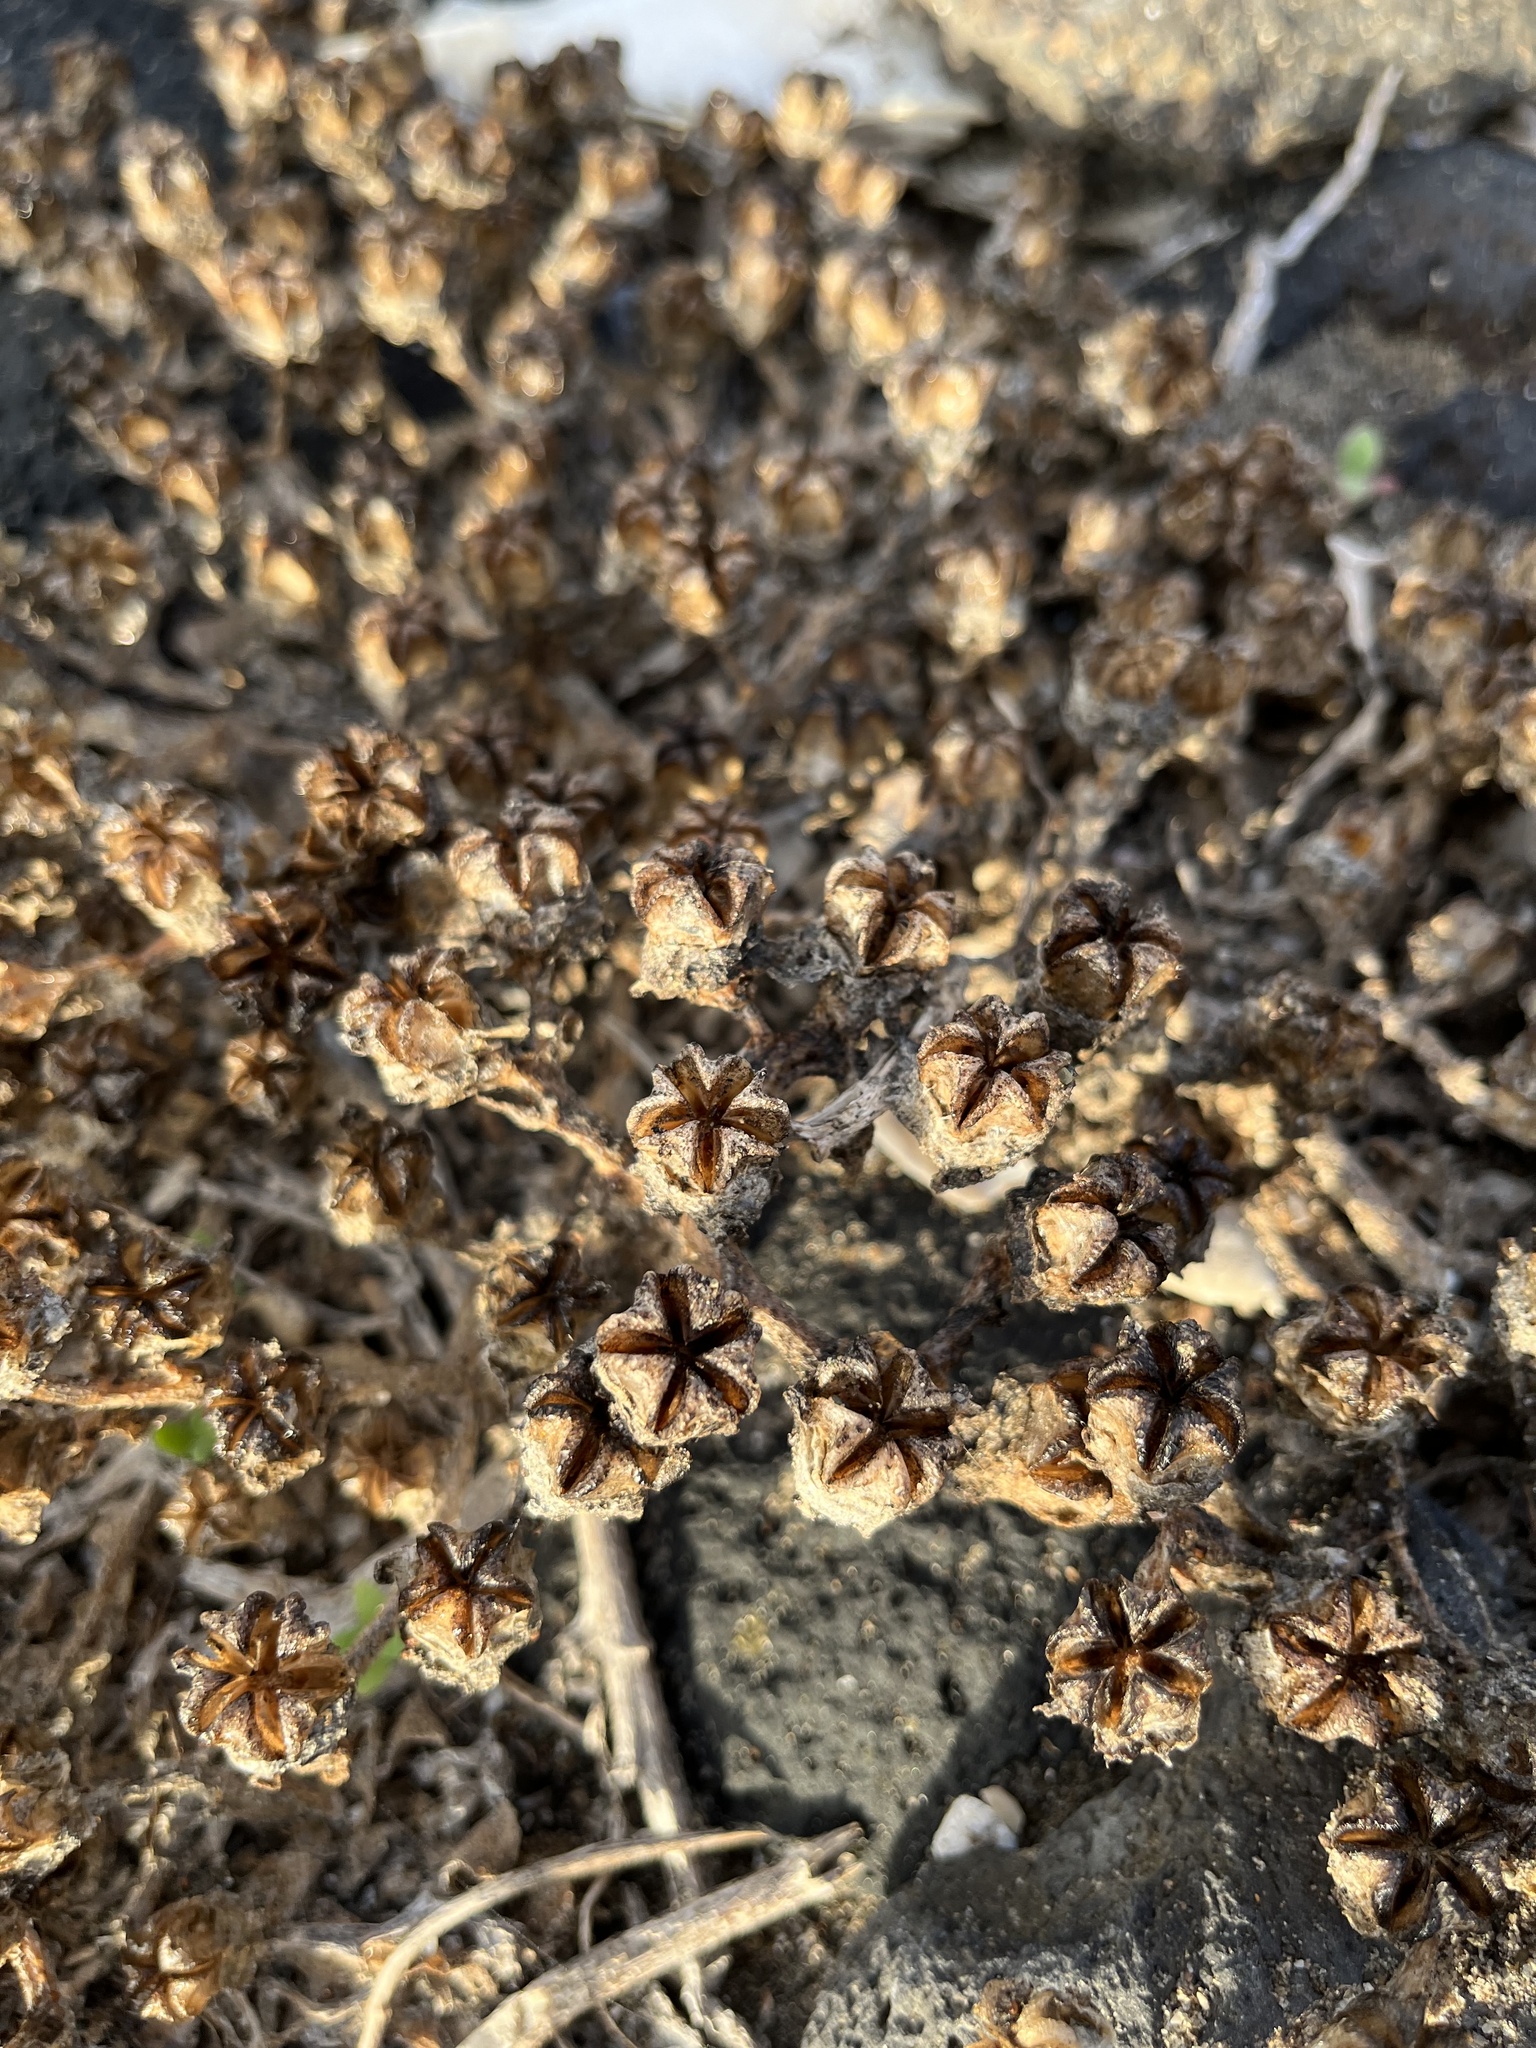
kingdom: Plantae
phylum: Tracheophyta
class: Magnoliopsida
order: Caryophyllales
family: Aizoaceae
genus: Mesembryanthemum
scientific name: Mesembryanthemum crystallinum
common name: Common iceplant
